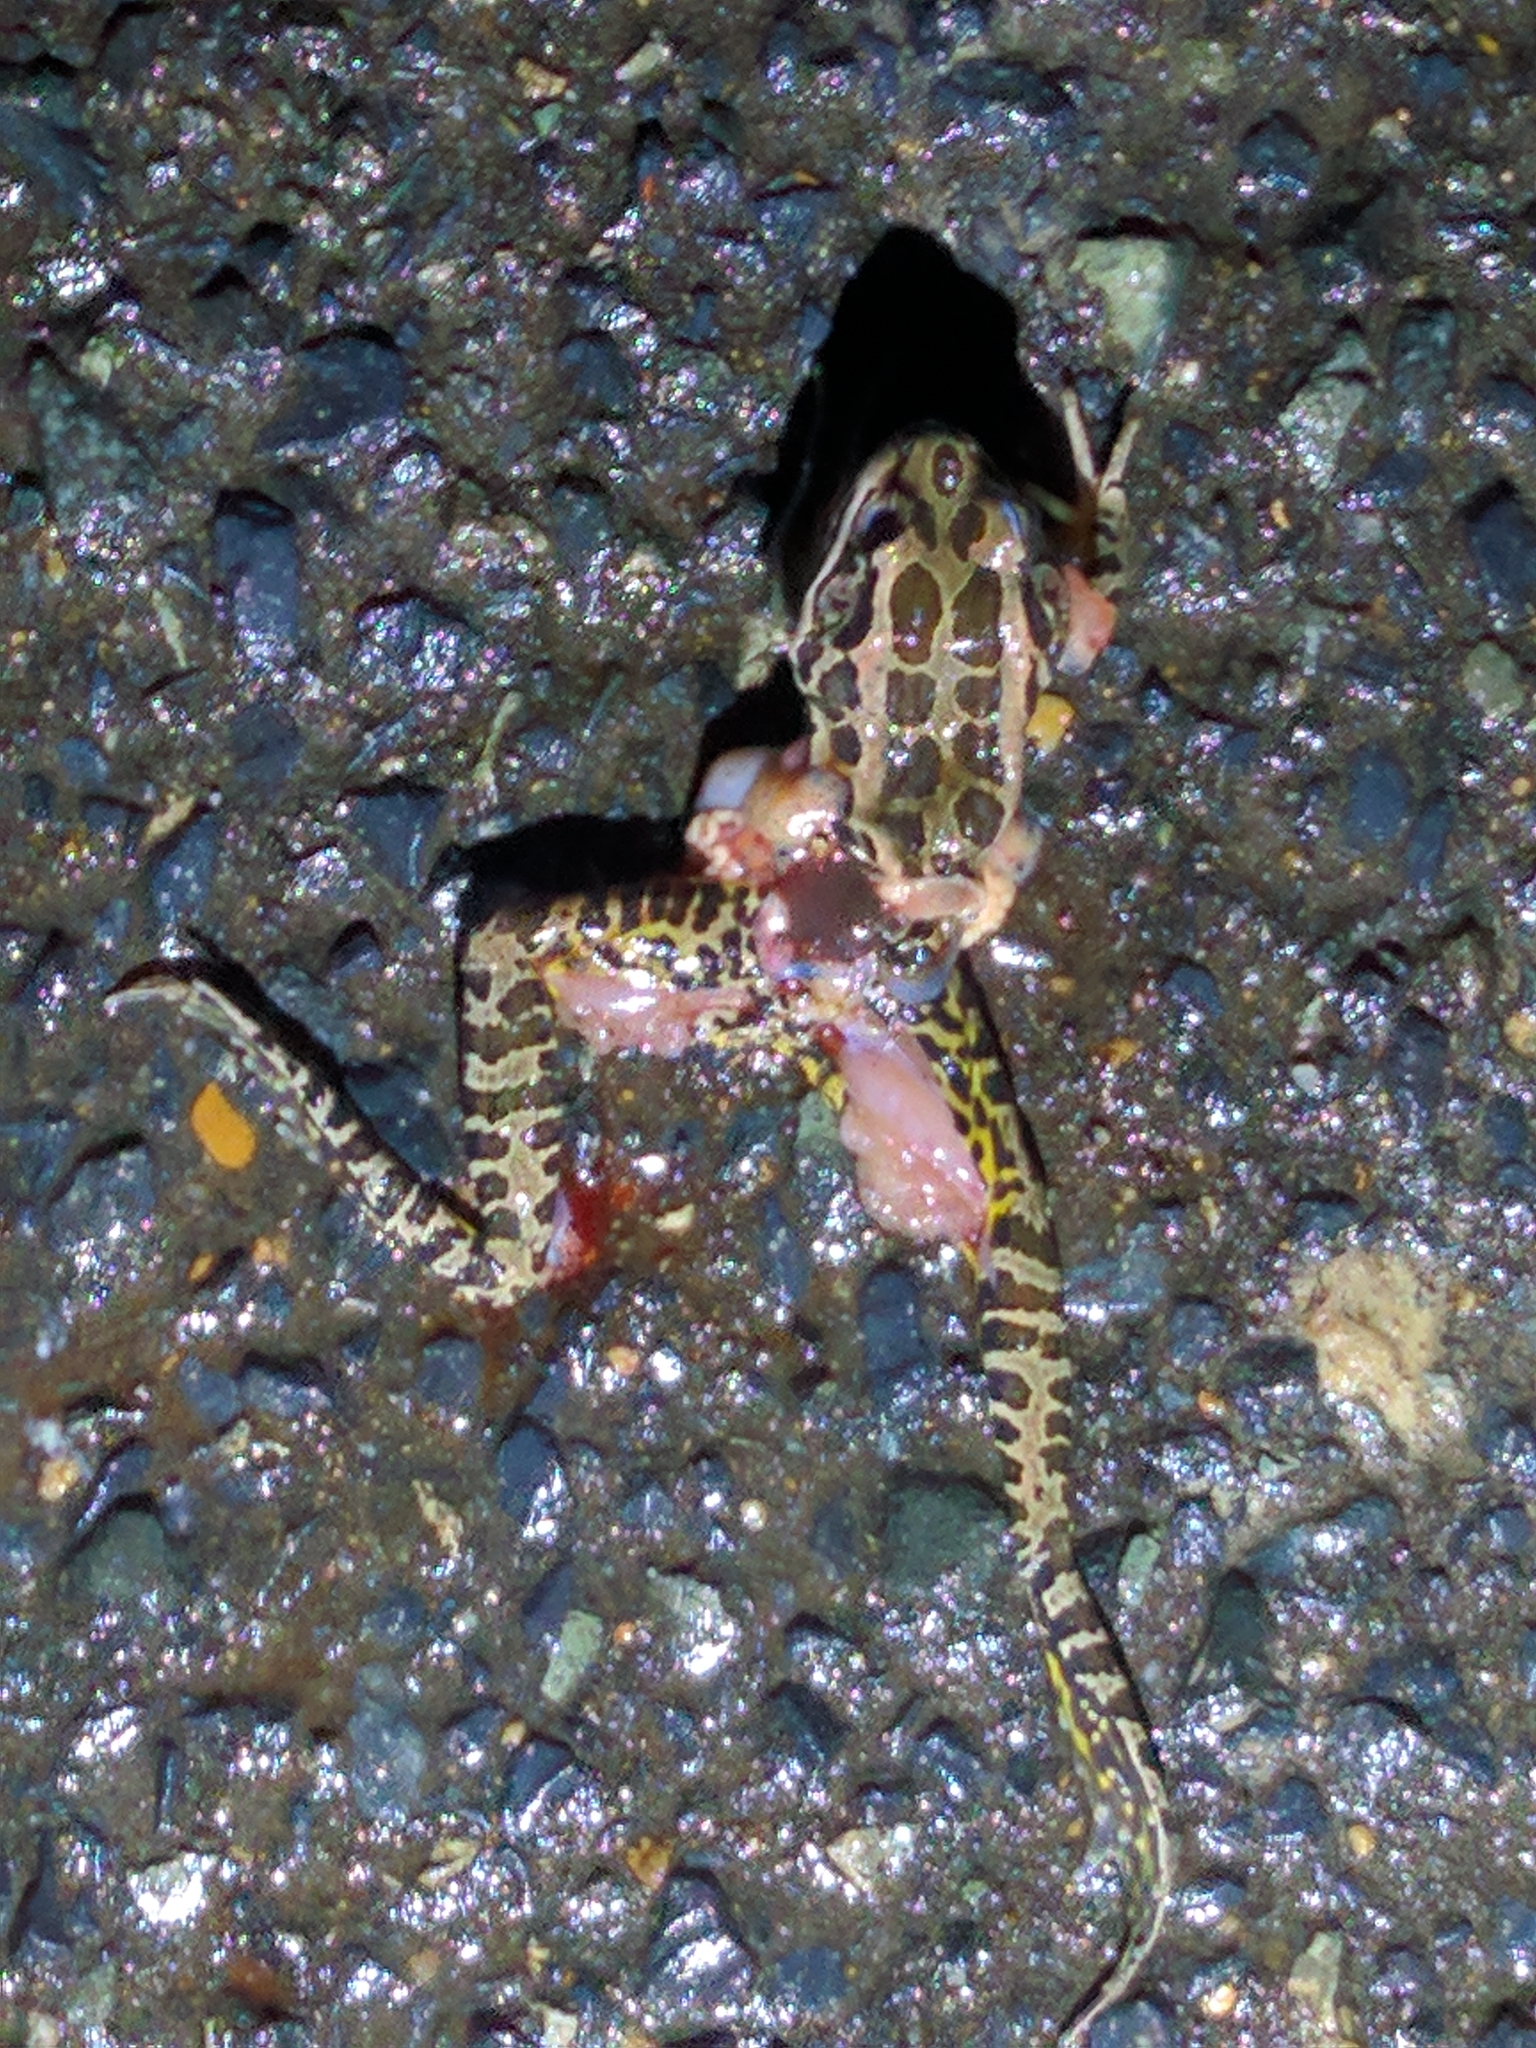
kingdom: Animalia
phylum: Chordata
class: Amphibia
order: Anura
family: Ranidae
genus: Lithobates
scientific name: Lithobates palustris
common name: Pickerel frog
